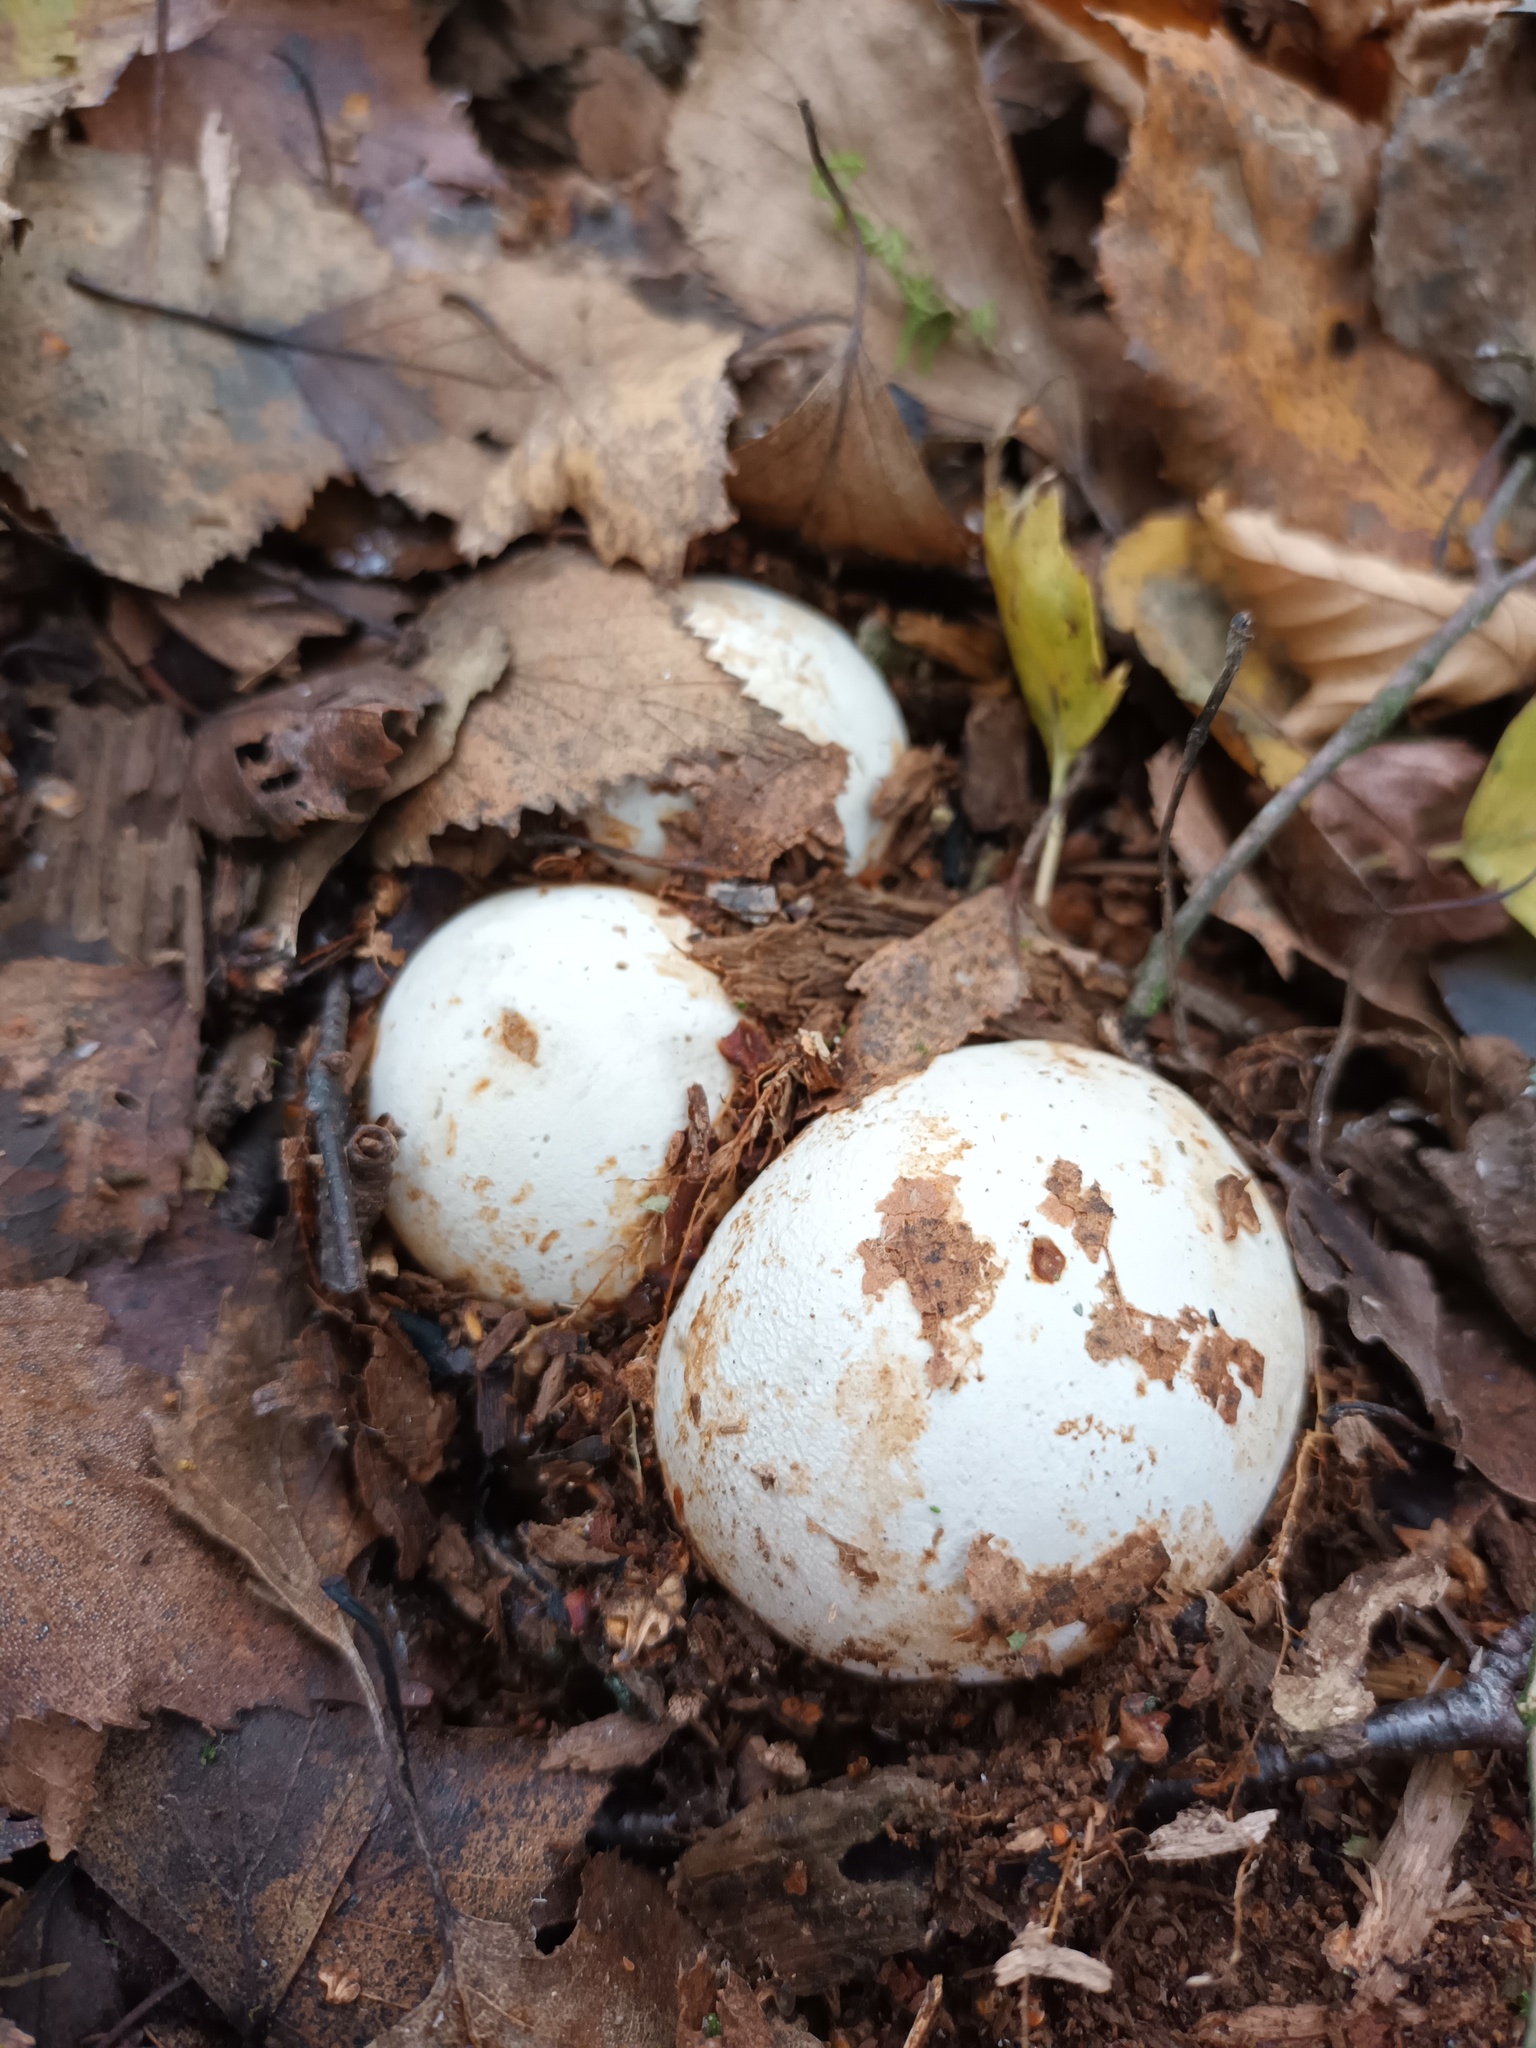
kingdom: Fungi
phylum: Basidiomycota
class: Agaricomycetes
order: Phallales
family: Phallaceae
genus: Phallus
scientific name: Phallus impudicus
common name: Common stinkhorn
